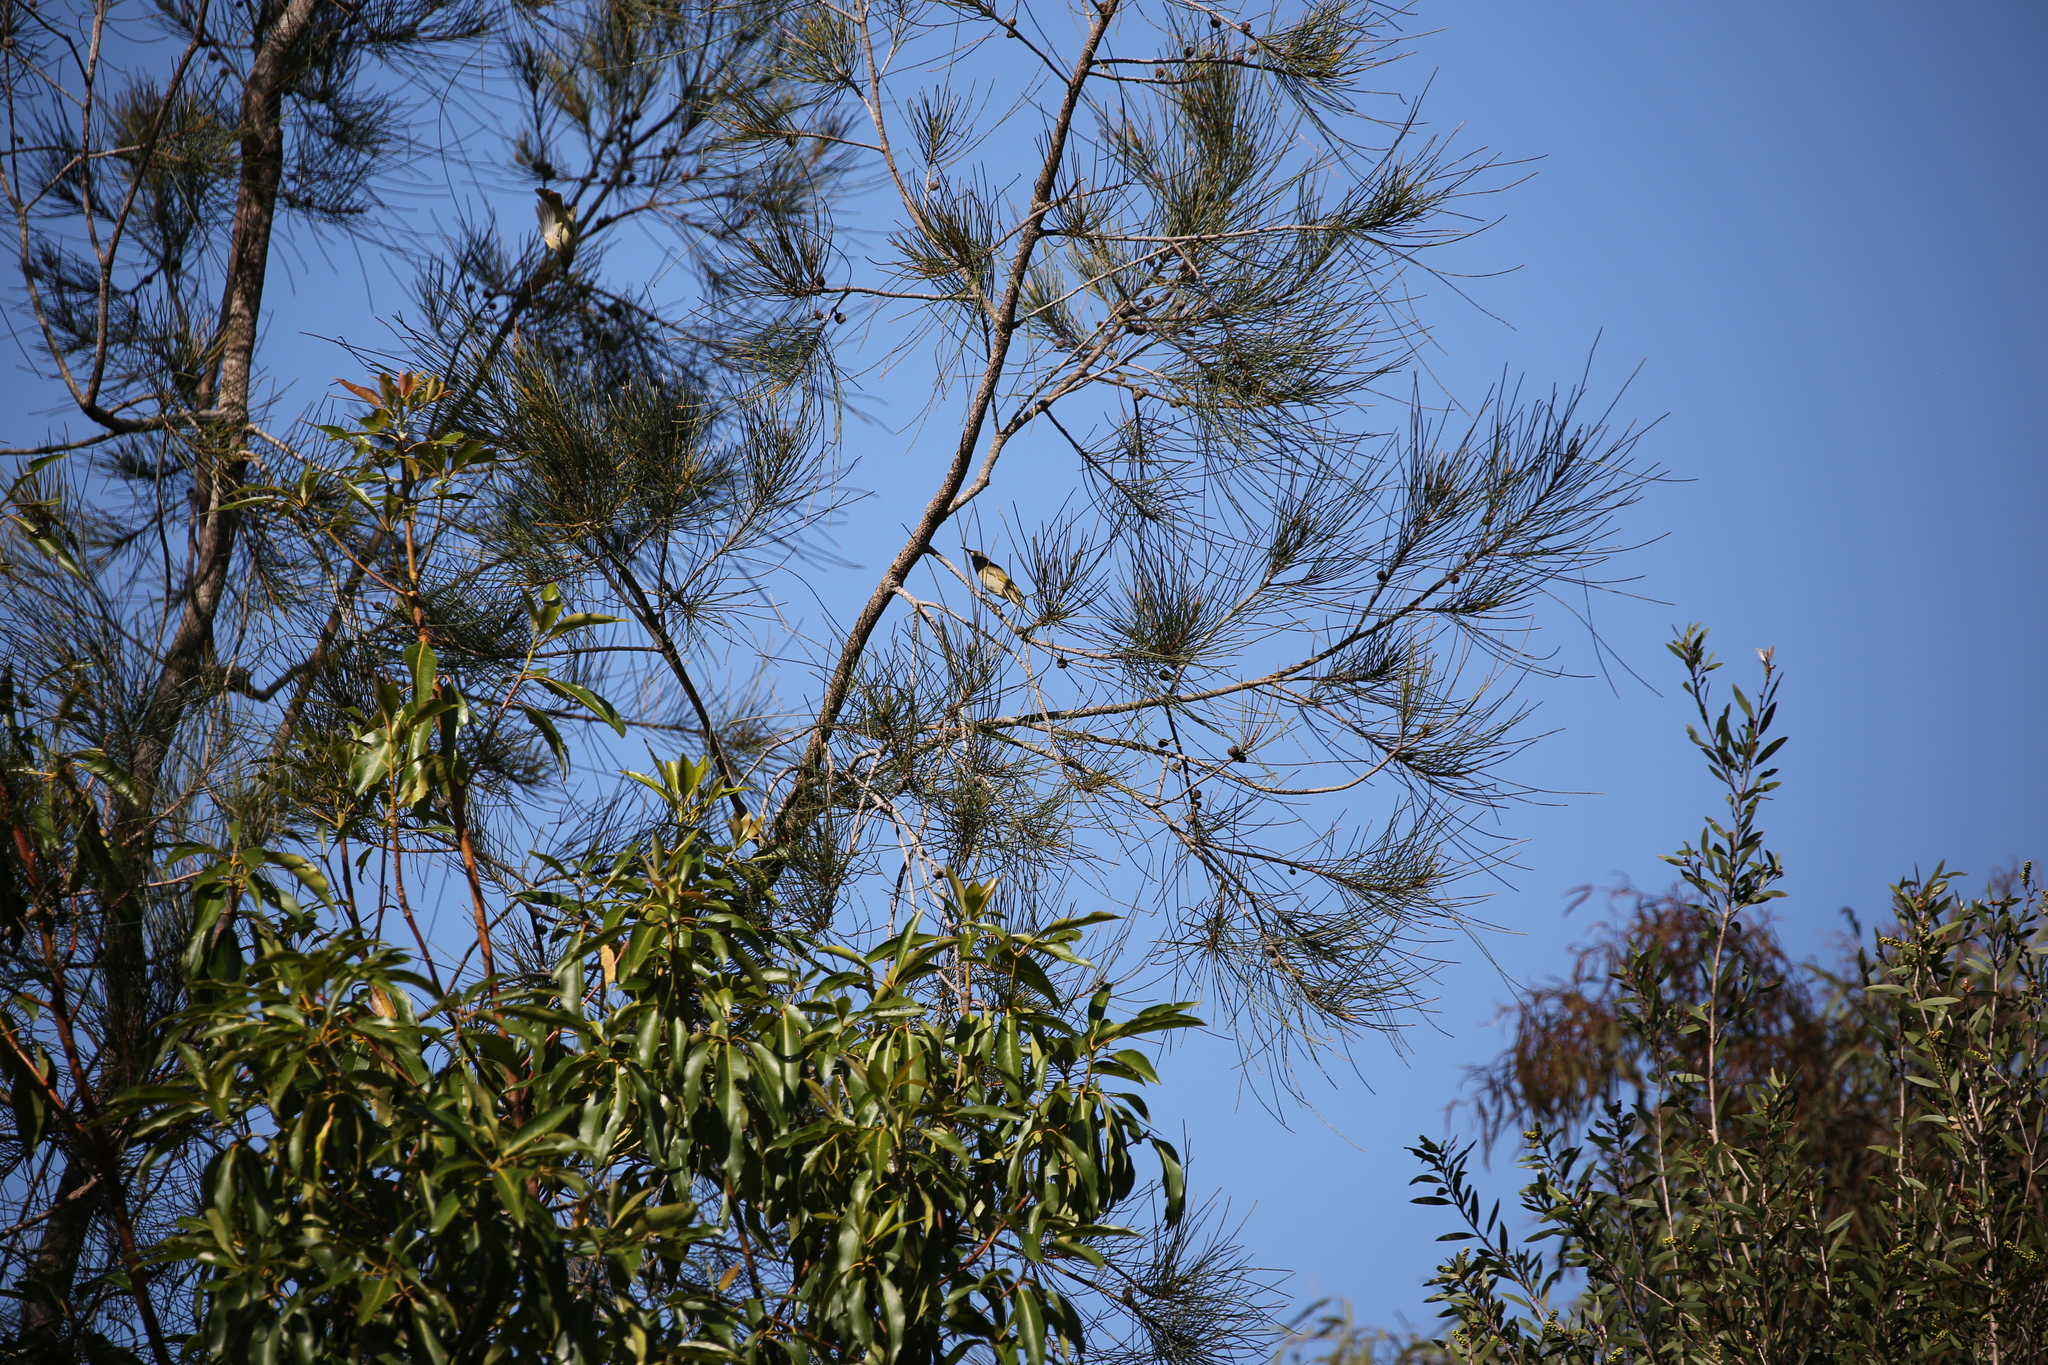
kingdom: Animalia
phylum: Chordata
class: Aves
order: Passeriformes
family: Meliphagidae
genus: Lichmera
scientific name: Lichmera indistincta
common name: Brown honeyeater
